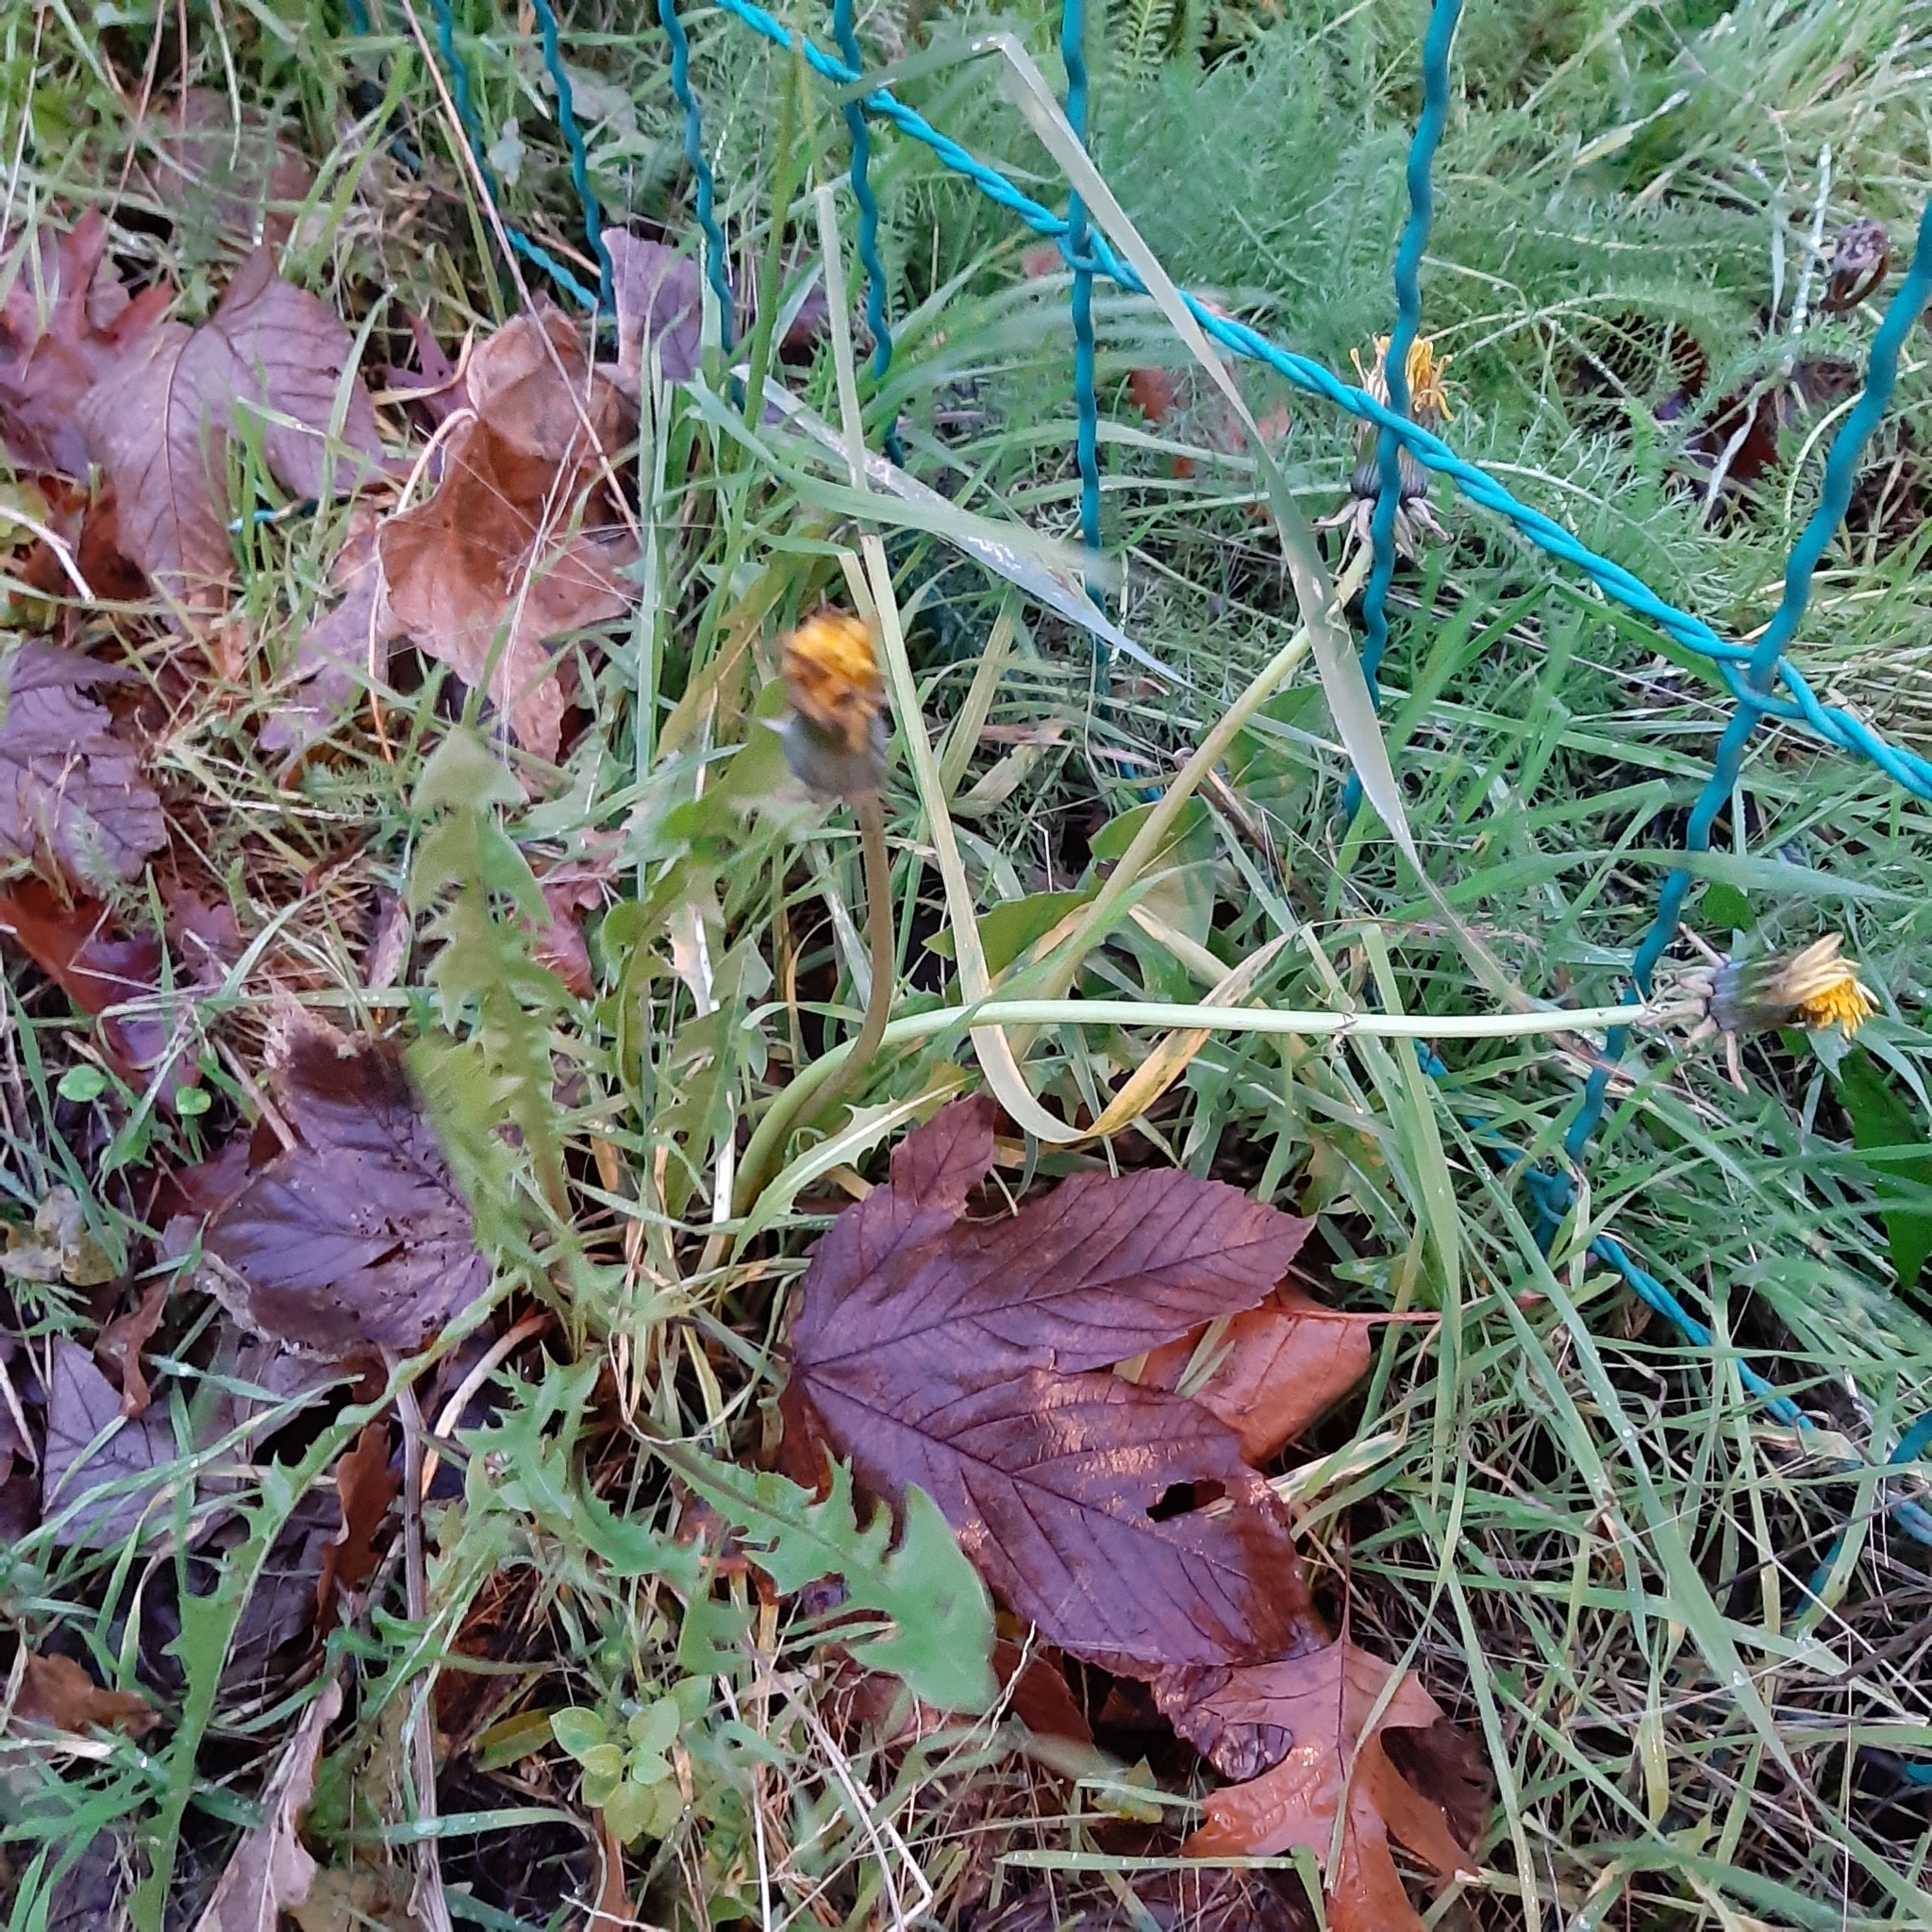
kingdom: Plantae
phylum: Tracheophyta
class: Magnoliopsida
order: Asterales
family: Asteraceae
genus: Taraxacum
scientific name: Taraxacum officinale
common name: Common dandelion
